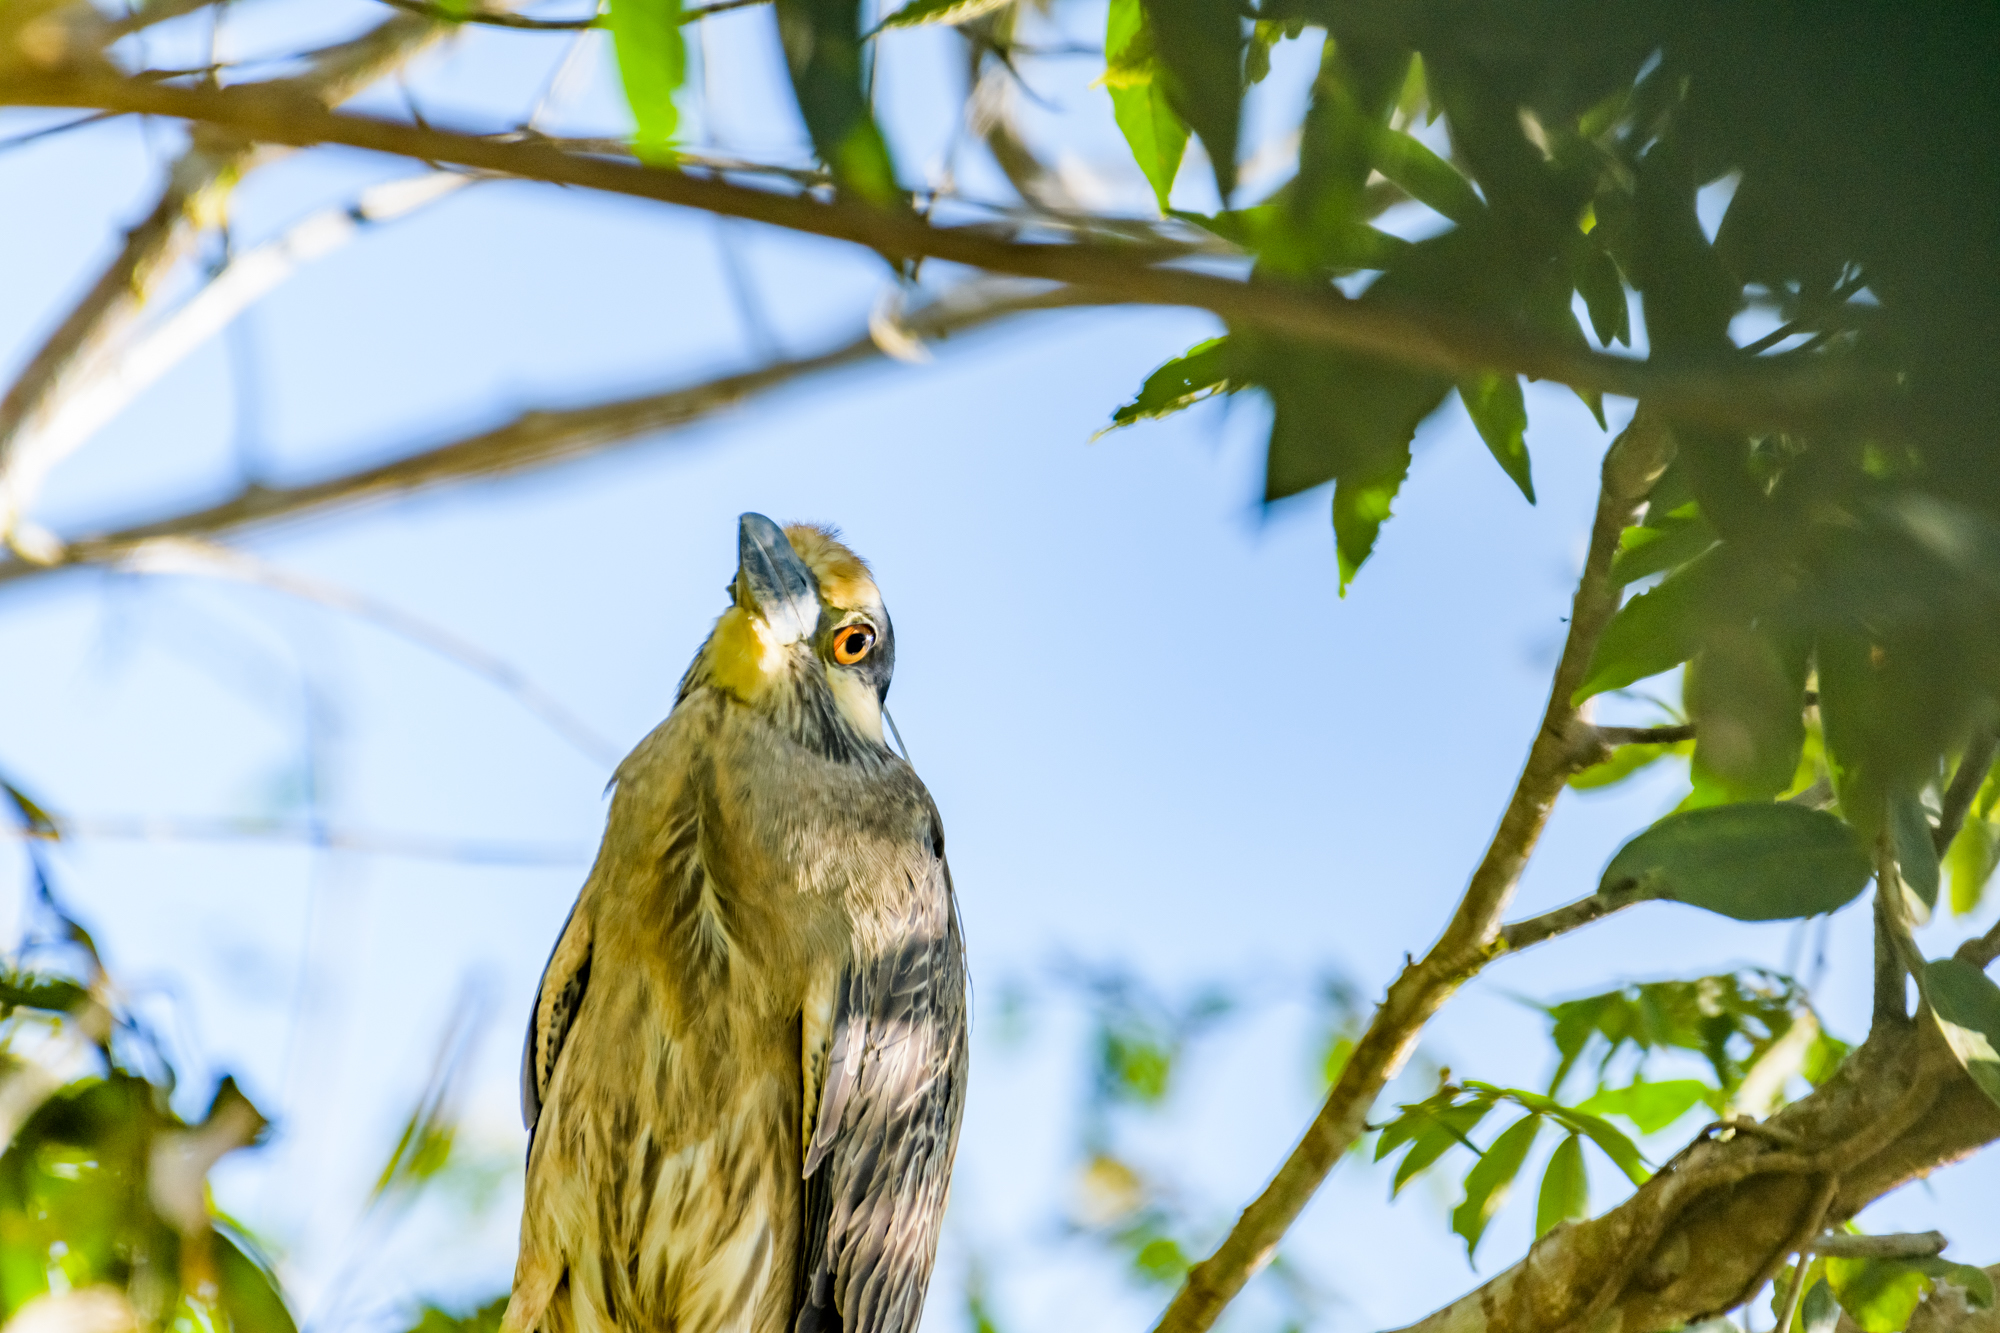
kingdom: Animalia
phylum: Chordata
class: Aves
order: Pelecaniformes
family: Ardeidae
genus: Nyctanassa
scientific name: Nyctanassa violacea
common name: Yellow-crowned night heron
